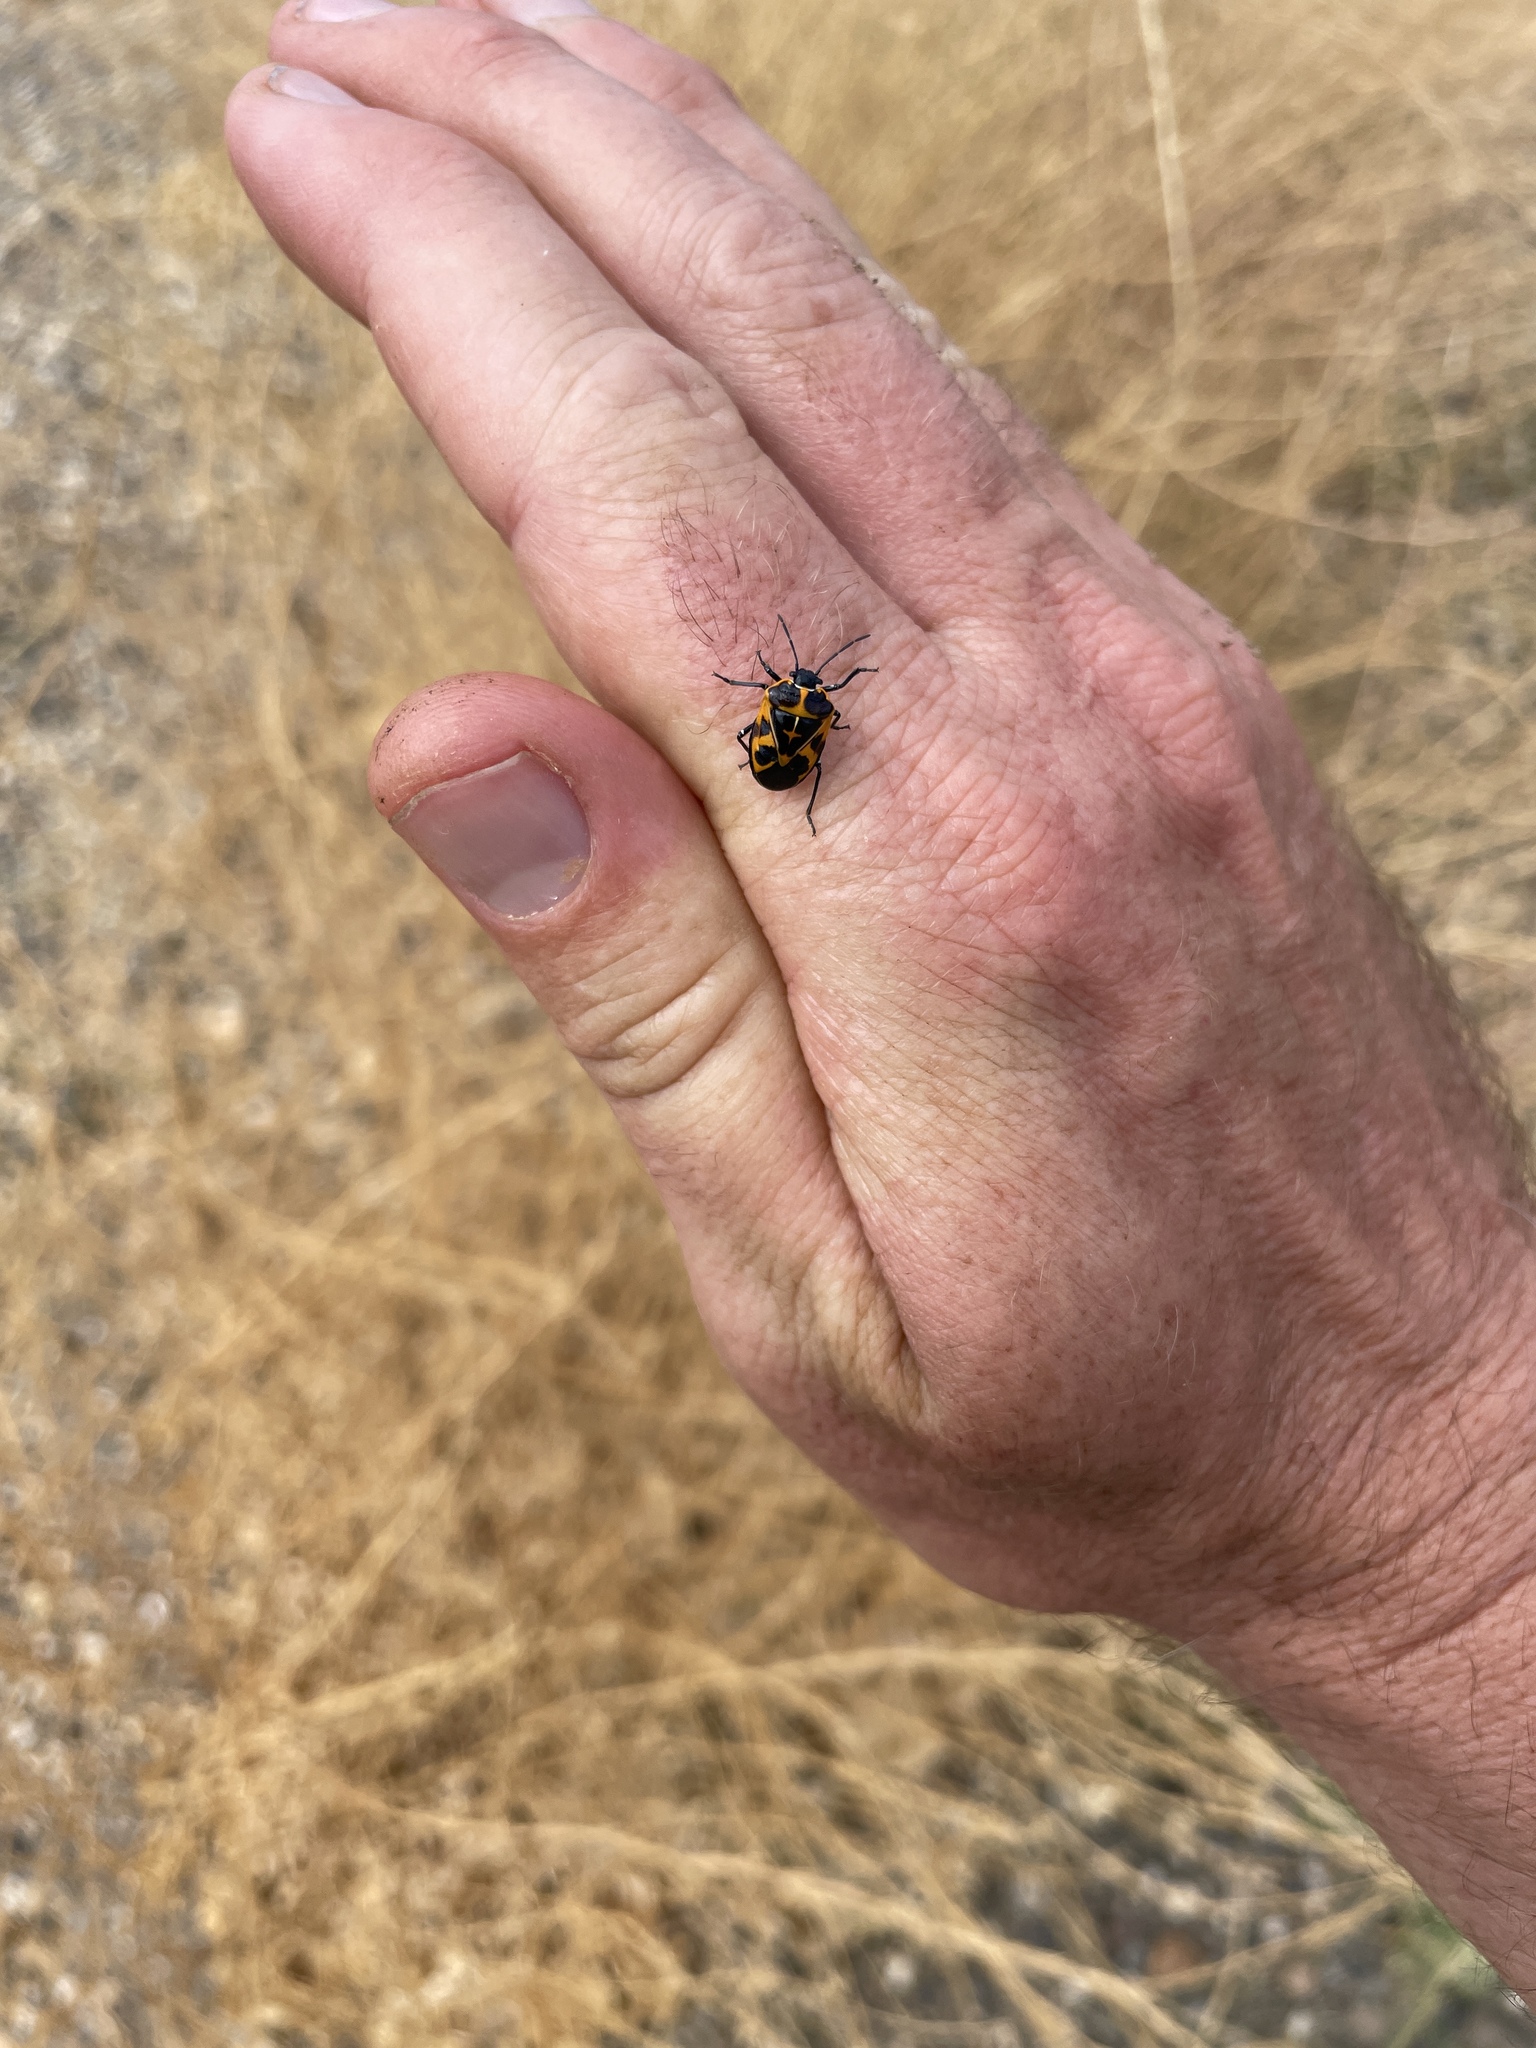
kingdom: Animalia
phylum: Arthropoda
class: Insecta
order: Hemiptera
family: Pentatomidae
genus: Murgantia
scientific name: Murgantia histrionica
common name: Harlequin bug
